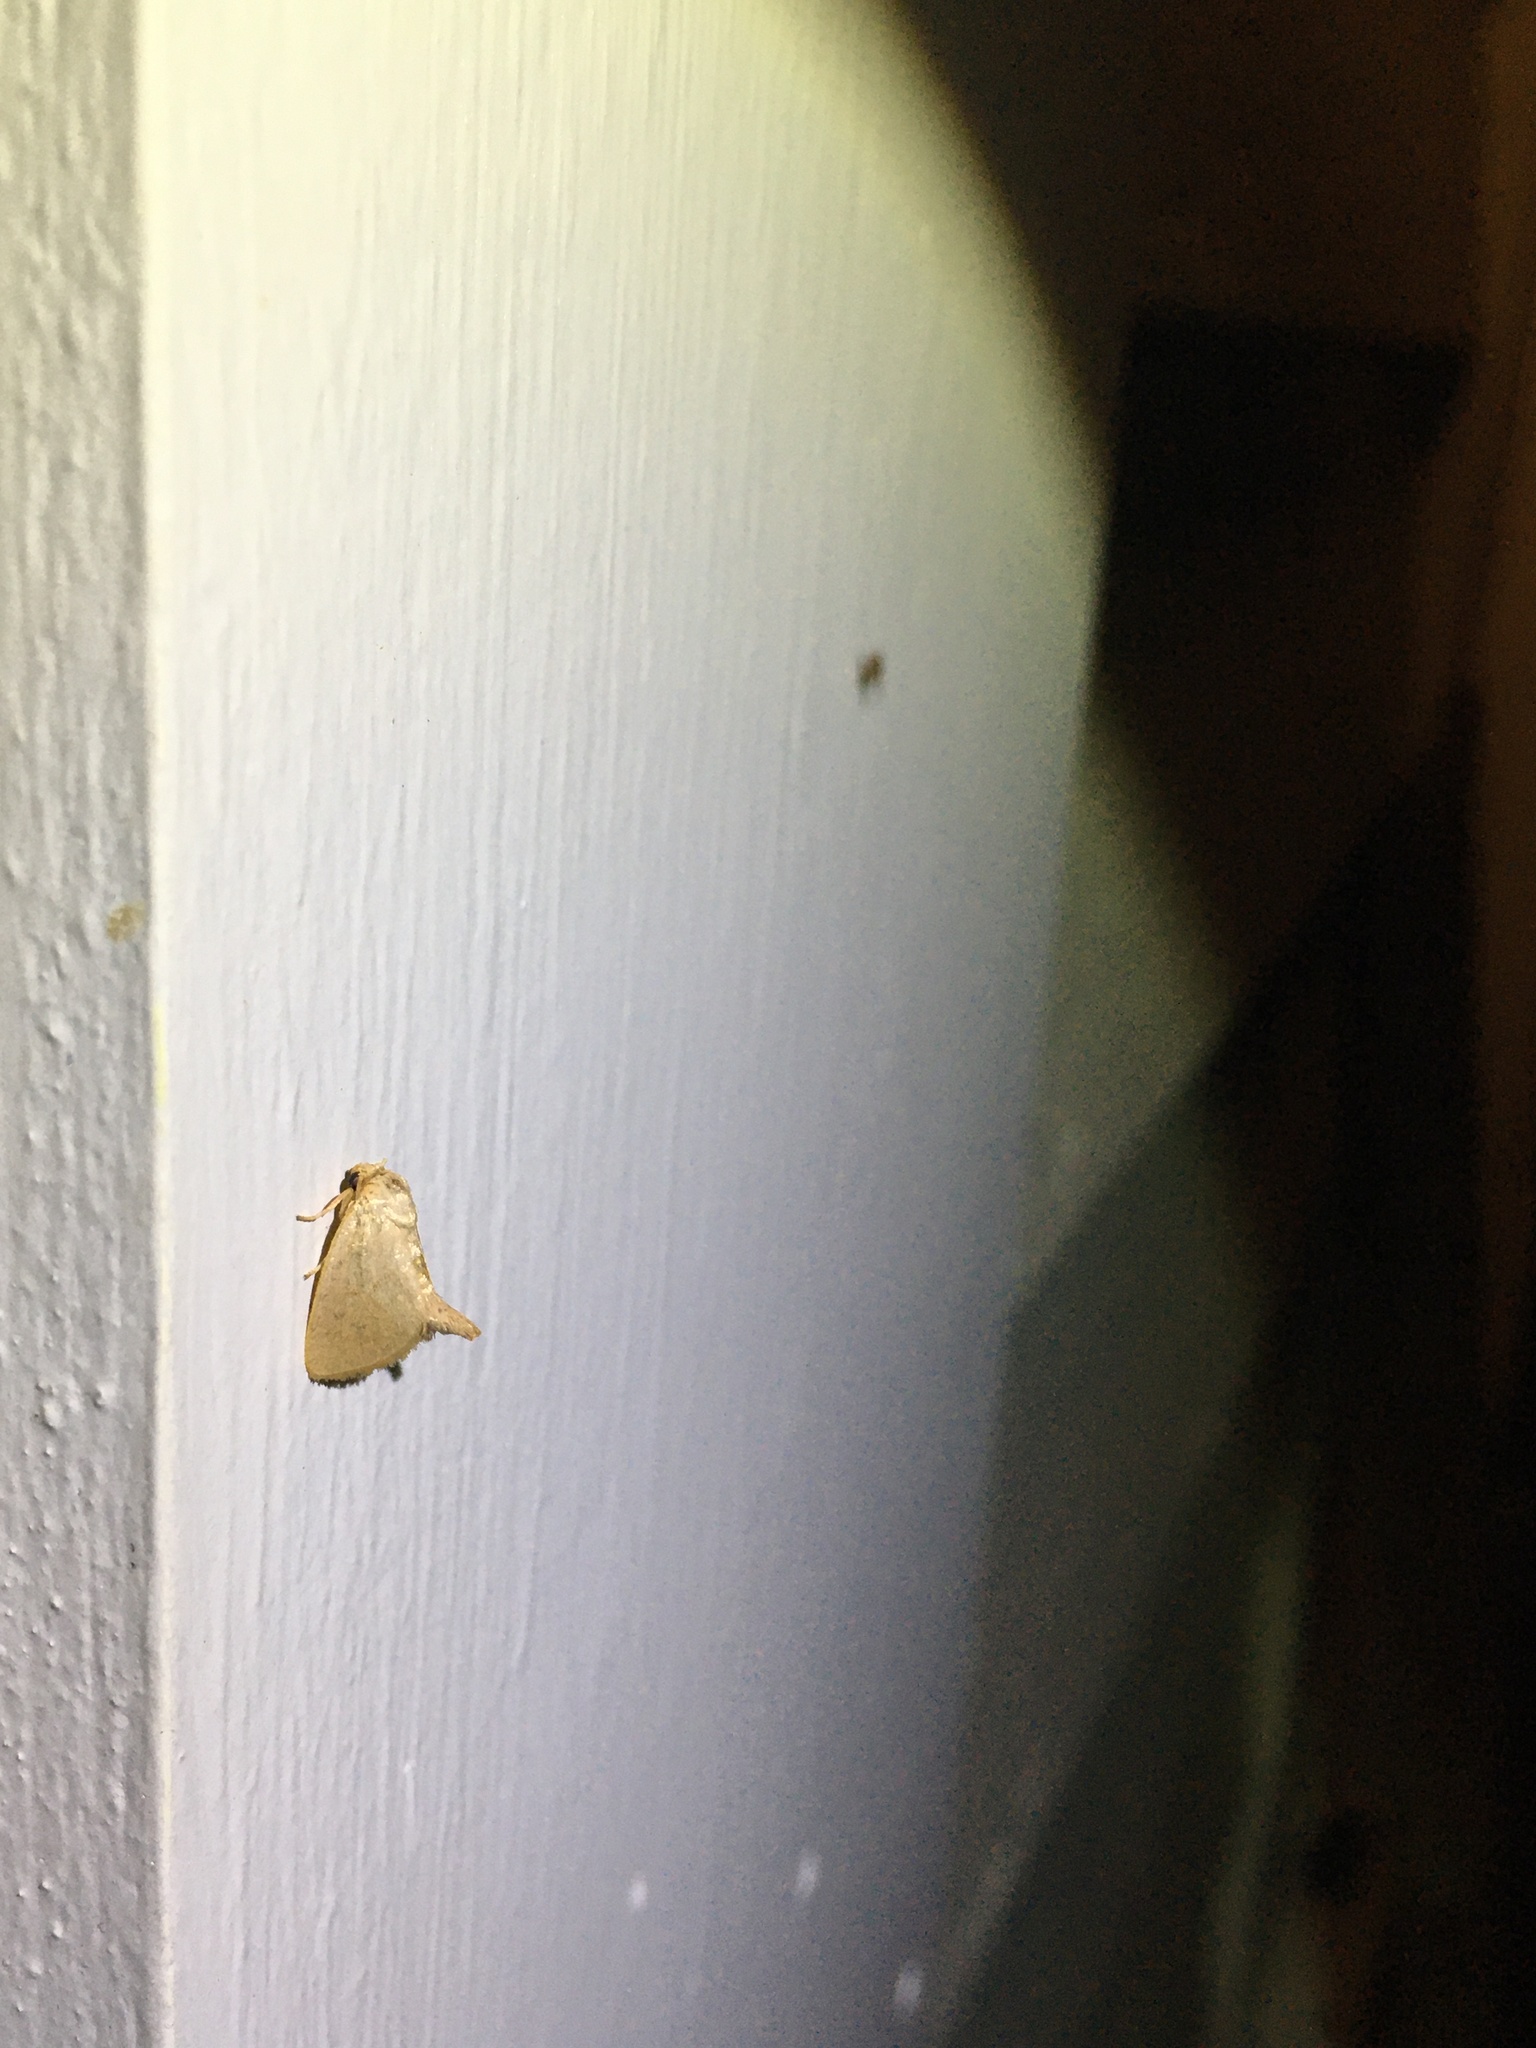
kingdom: Animalia
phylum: Arthropoda
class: Insecta
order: Lepidoptera
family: Limacodidae
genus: Tortricidia
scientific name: Tortricidia pallida
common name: Red-crossed button slug moth
